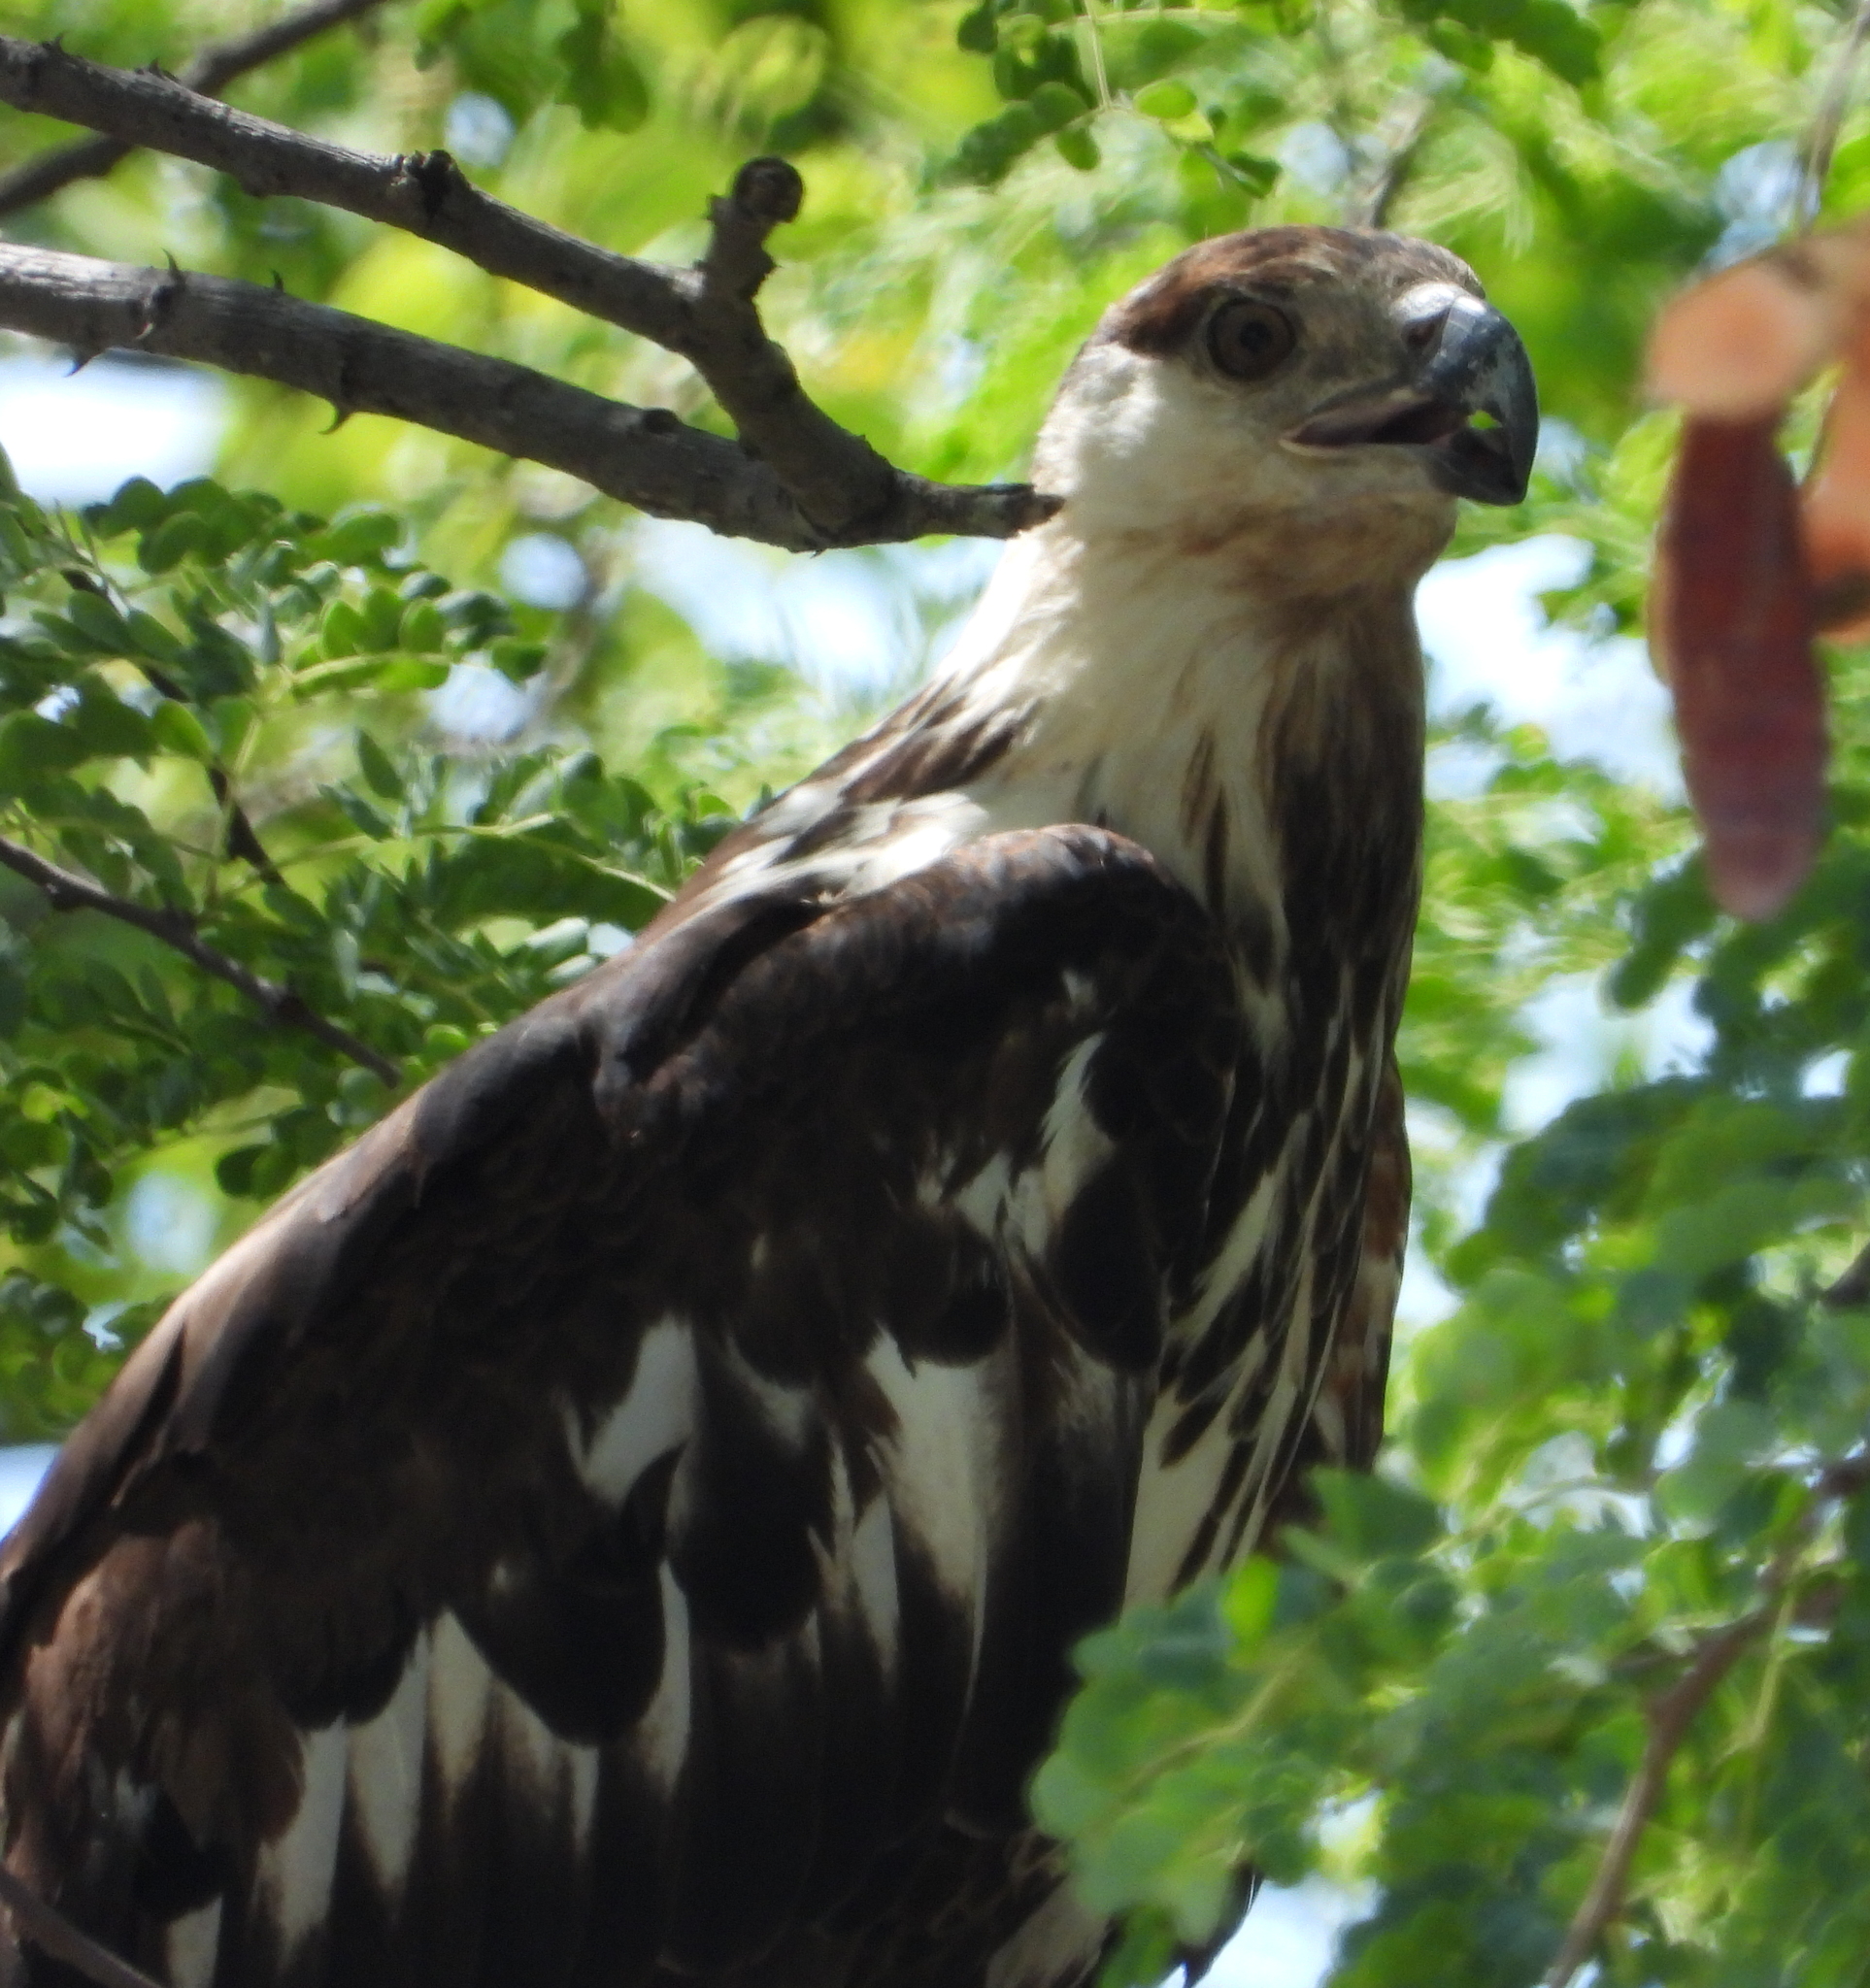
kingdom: Animalia
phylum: Chordata
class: Aves
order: Accipitriformes
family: Accipitridae
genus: Haliaeetus
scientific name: Haliaeetus vocifer
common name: African fish eagle
